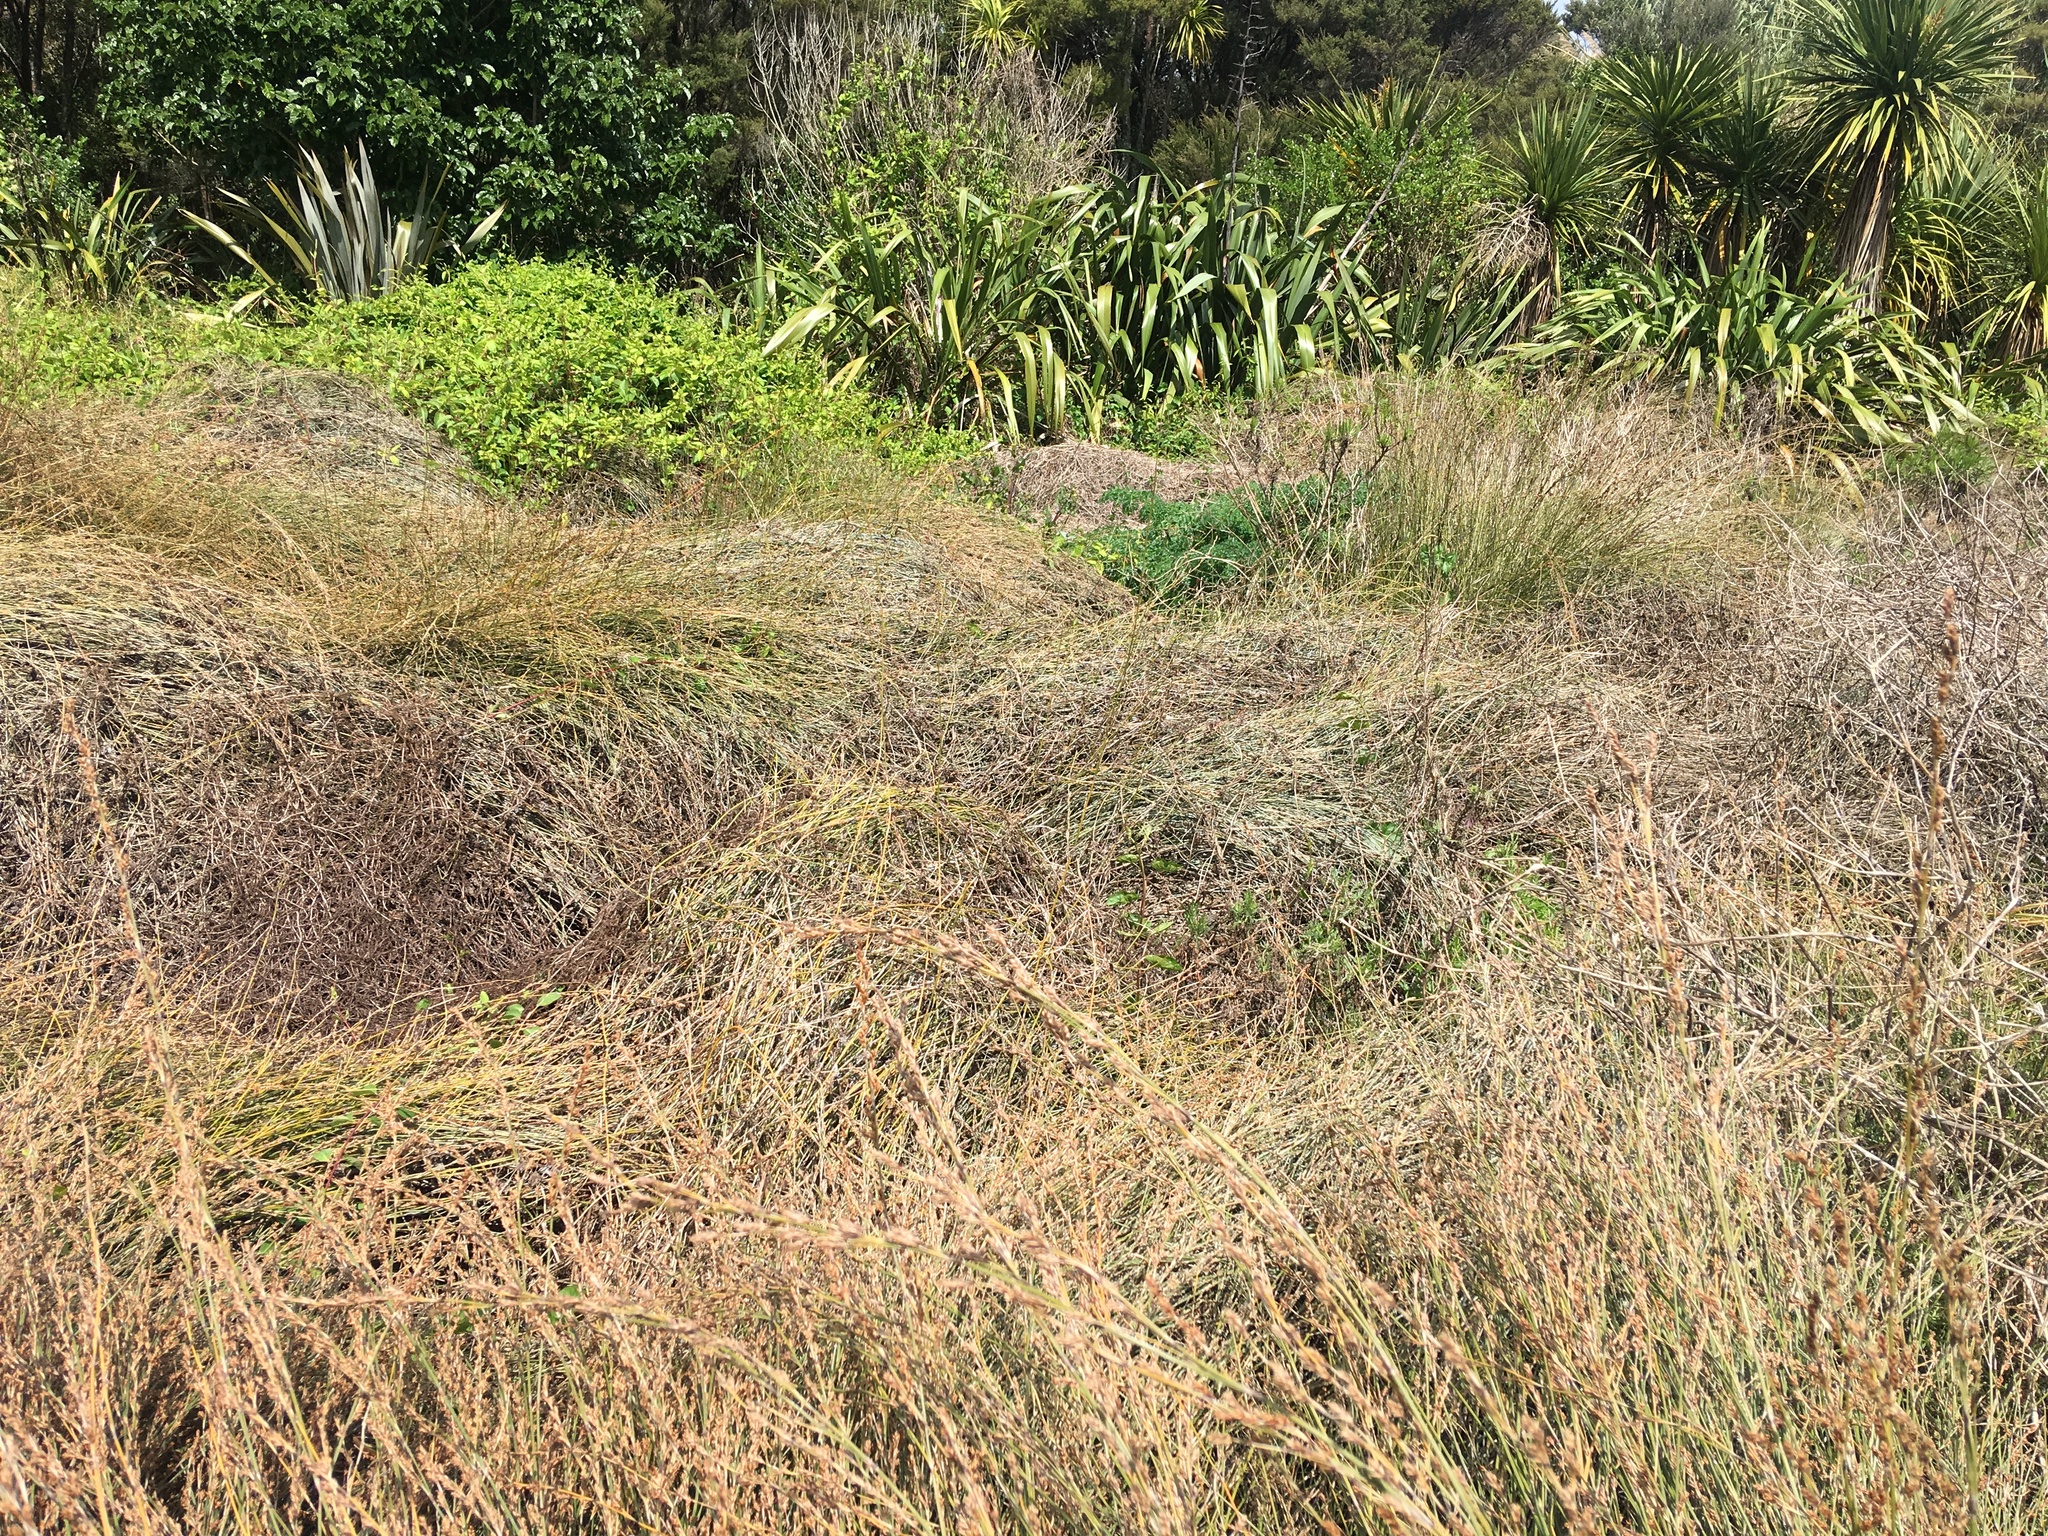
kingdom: Plantae
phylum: Tracheophyta
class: Liliopsida
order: Poales
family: Restionaceae
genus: Apodasmia
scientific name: Apodasmia similis
